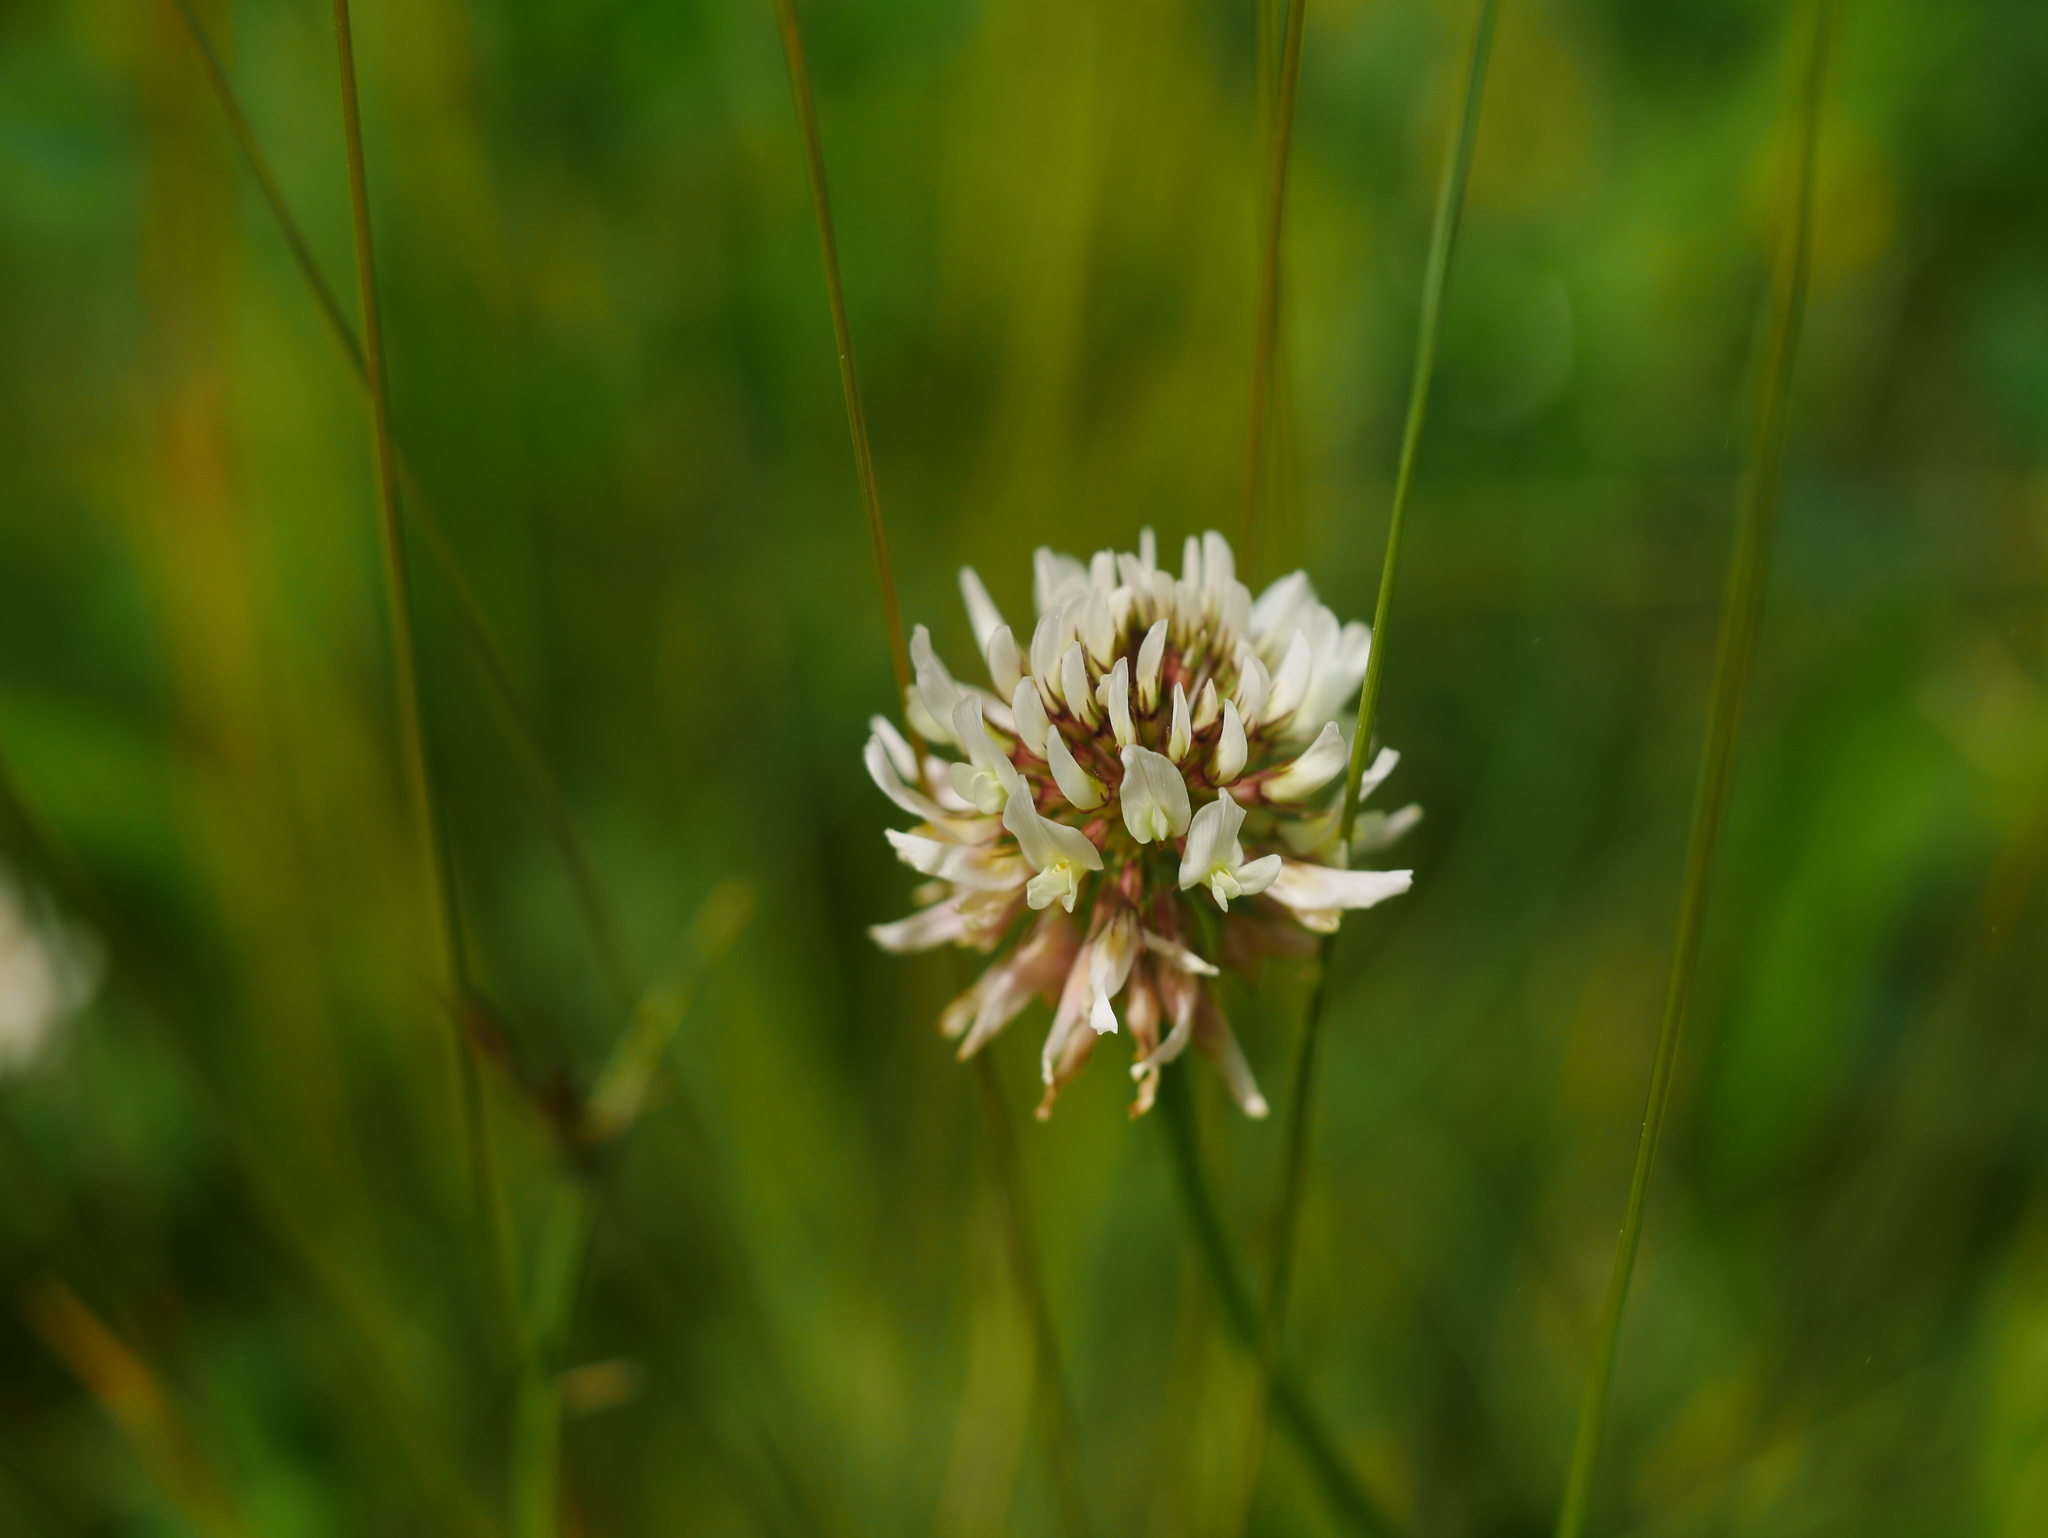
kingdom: Plantae
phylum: Tracheophyta
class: Magnoliopsida
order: Fabales
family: Fabaceae
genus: Trifolium
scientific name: Trifolium repens
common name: White clover
